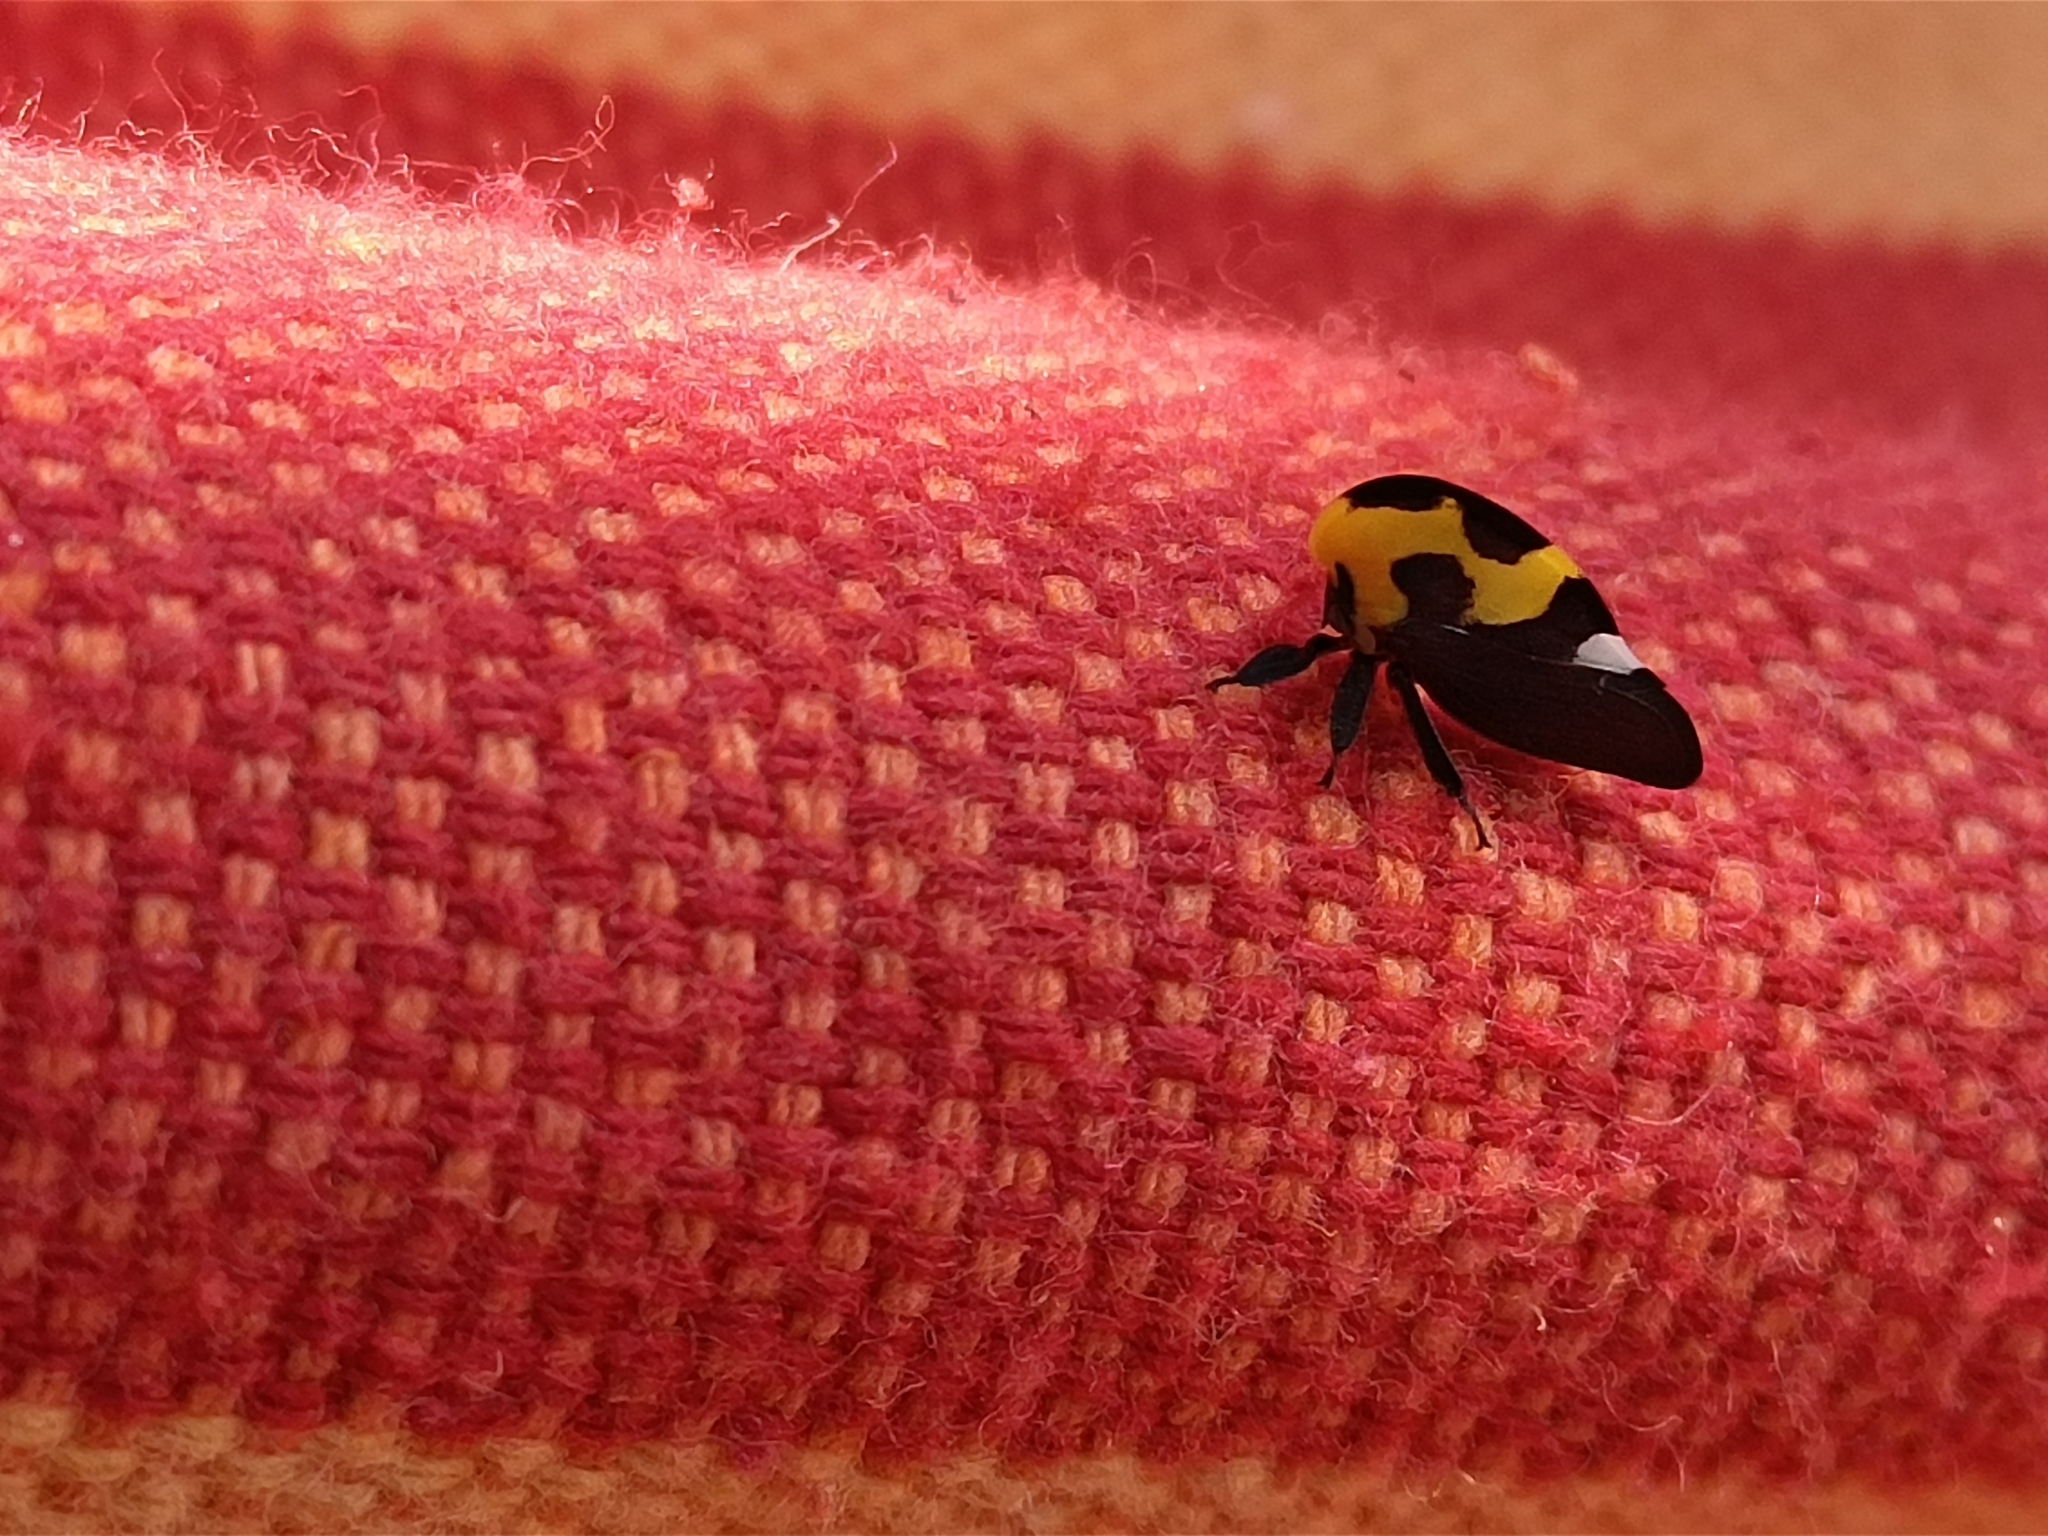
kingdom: Animalia
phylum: Arthropoda
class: Insecta
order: Hemiptera
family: Membracidae
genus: Membracis
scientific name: Membracis mexicana
